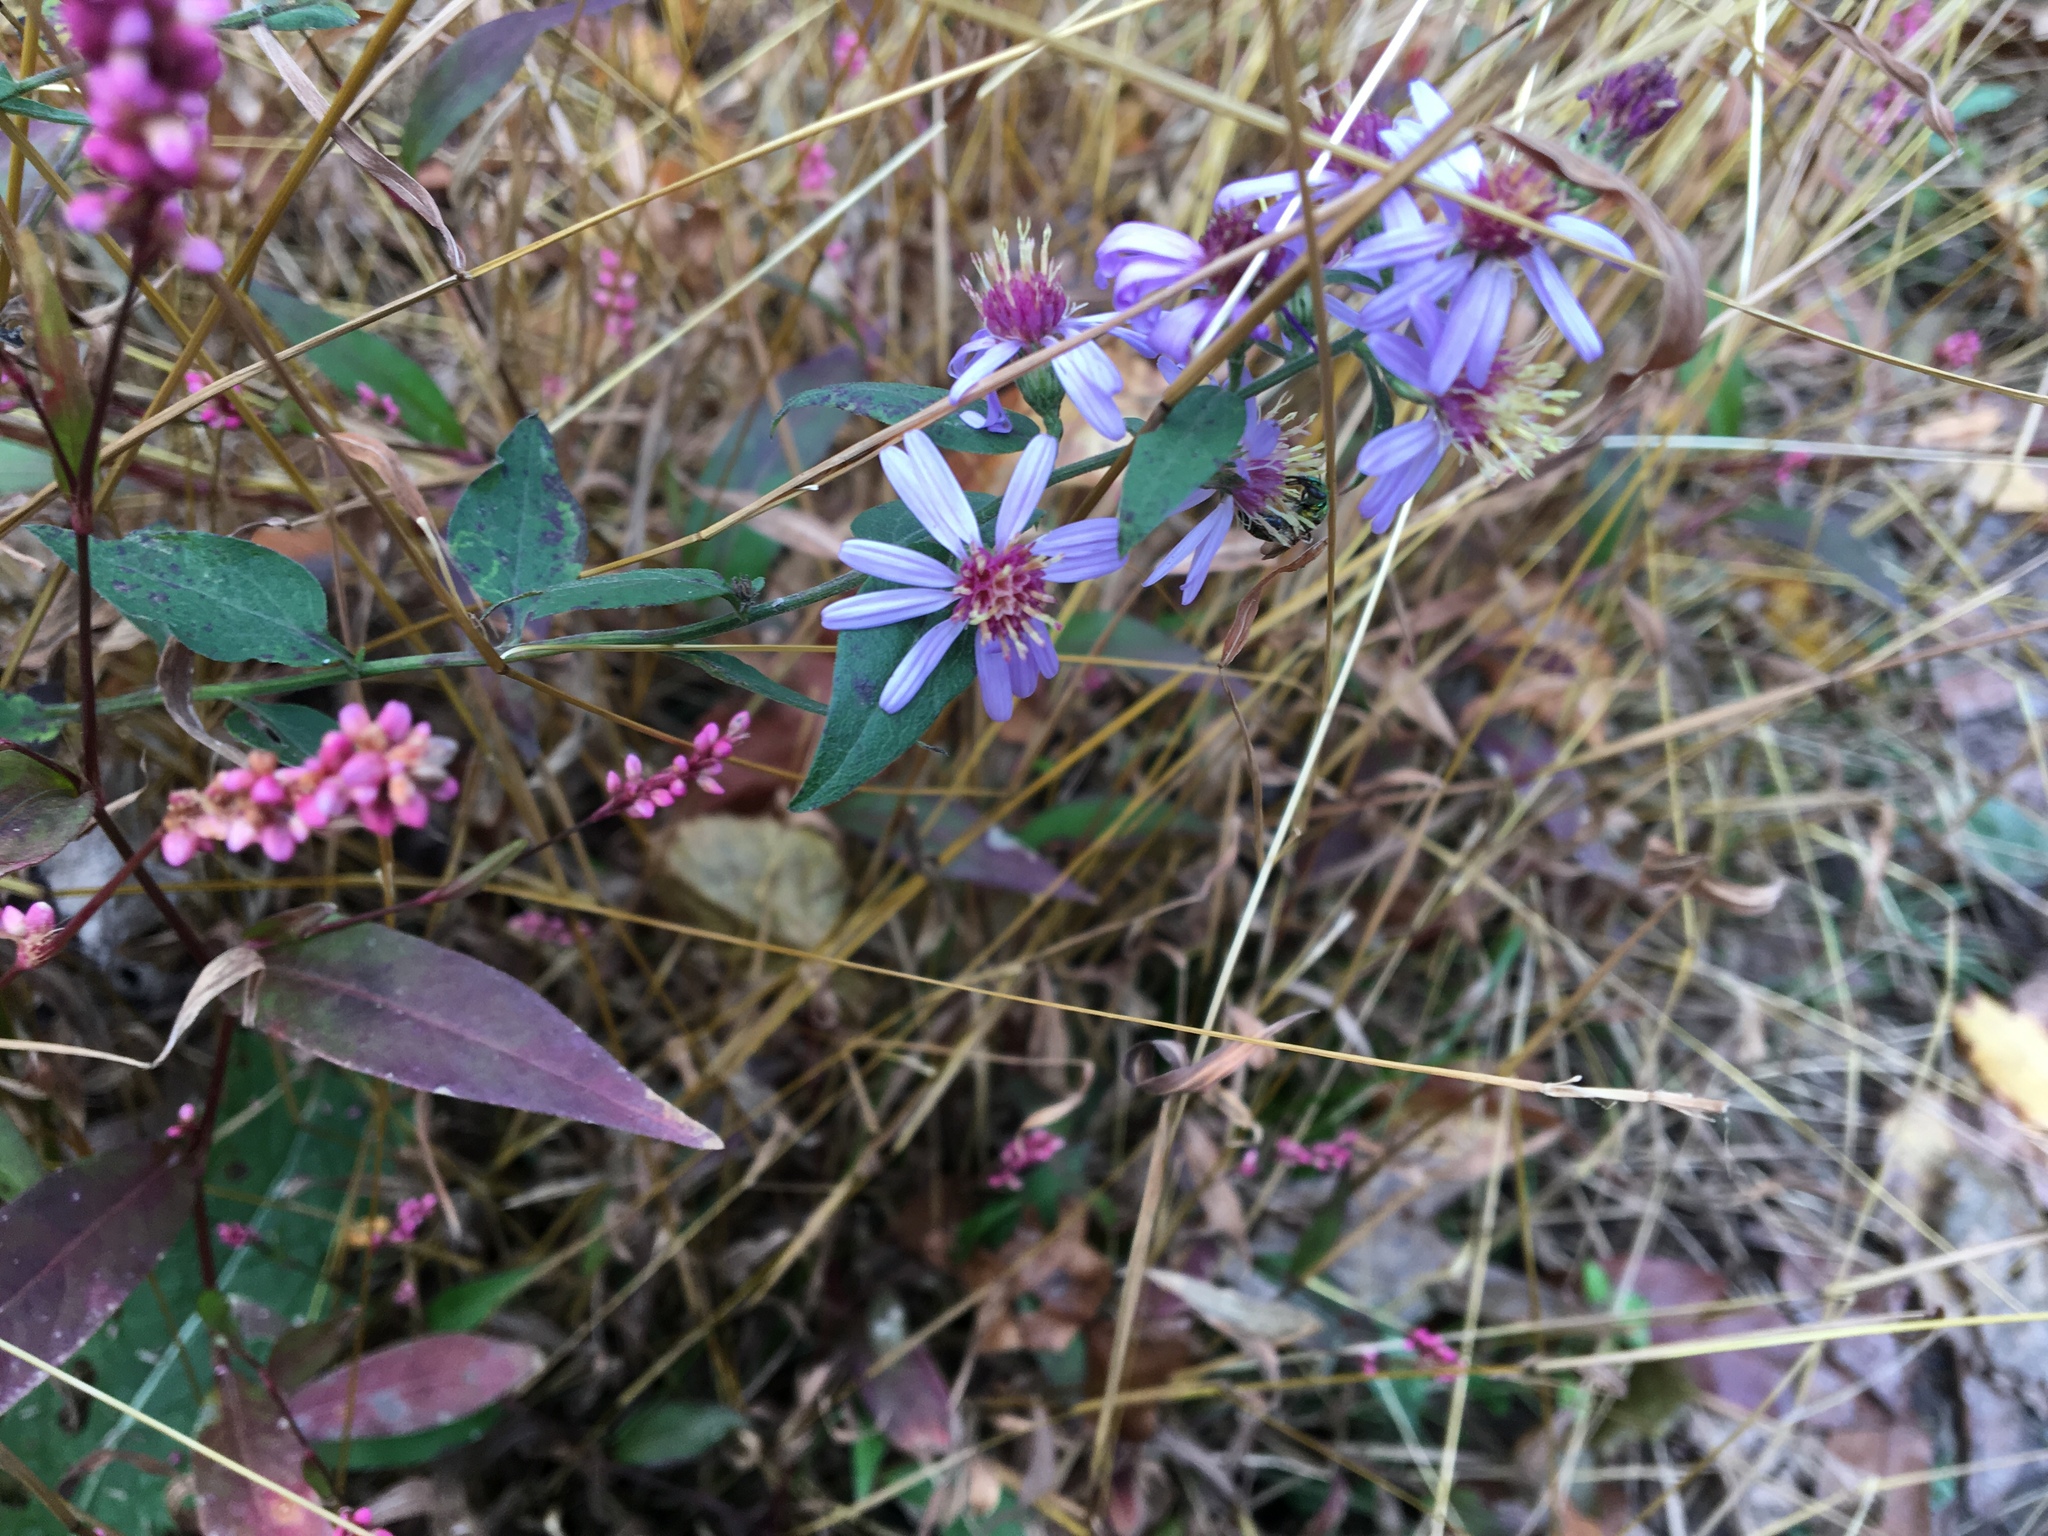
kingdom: Plantae
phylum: Tracheophyta
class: Magnoliopsida
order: Asterales
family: Asteraceae
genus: Symphyotrichum
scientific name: Symphyotrichum cordifolium
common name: Beeweed
